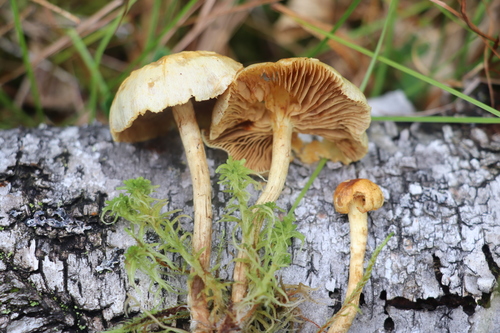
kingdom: Fungi
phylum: Basidiomycota
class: Agaricomycetes
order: Agaricales
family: Strophariaceae
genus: Pholiota
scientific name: Pholiota elegans
